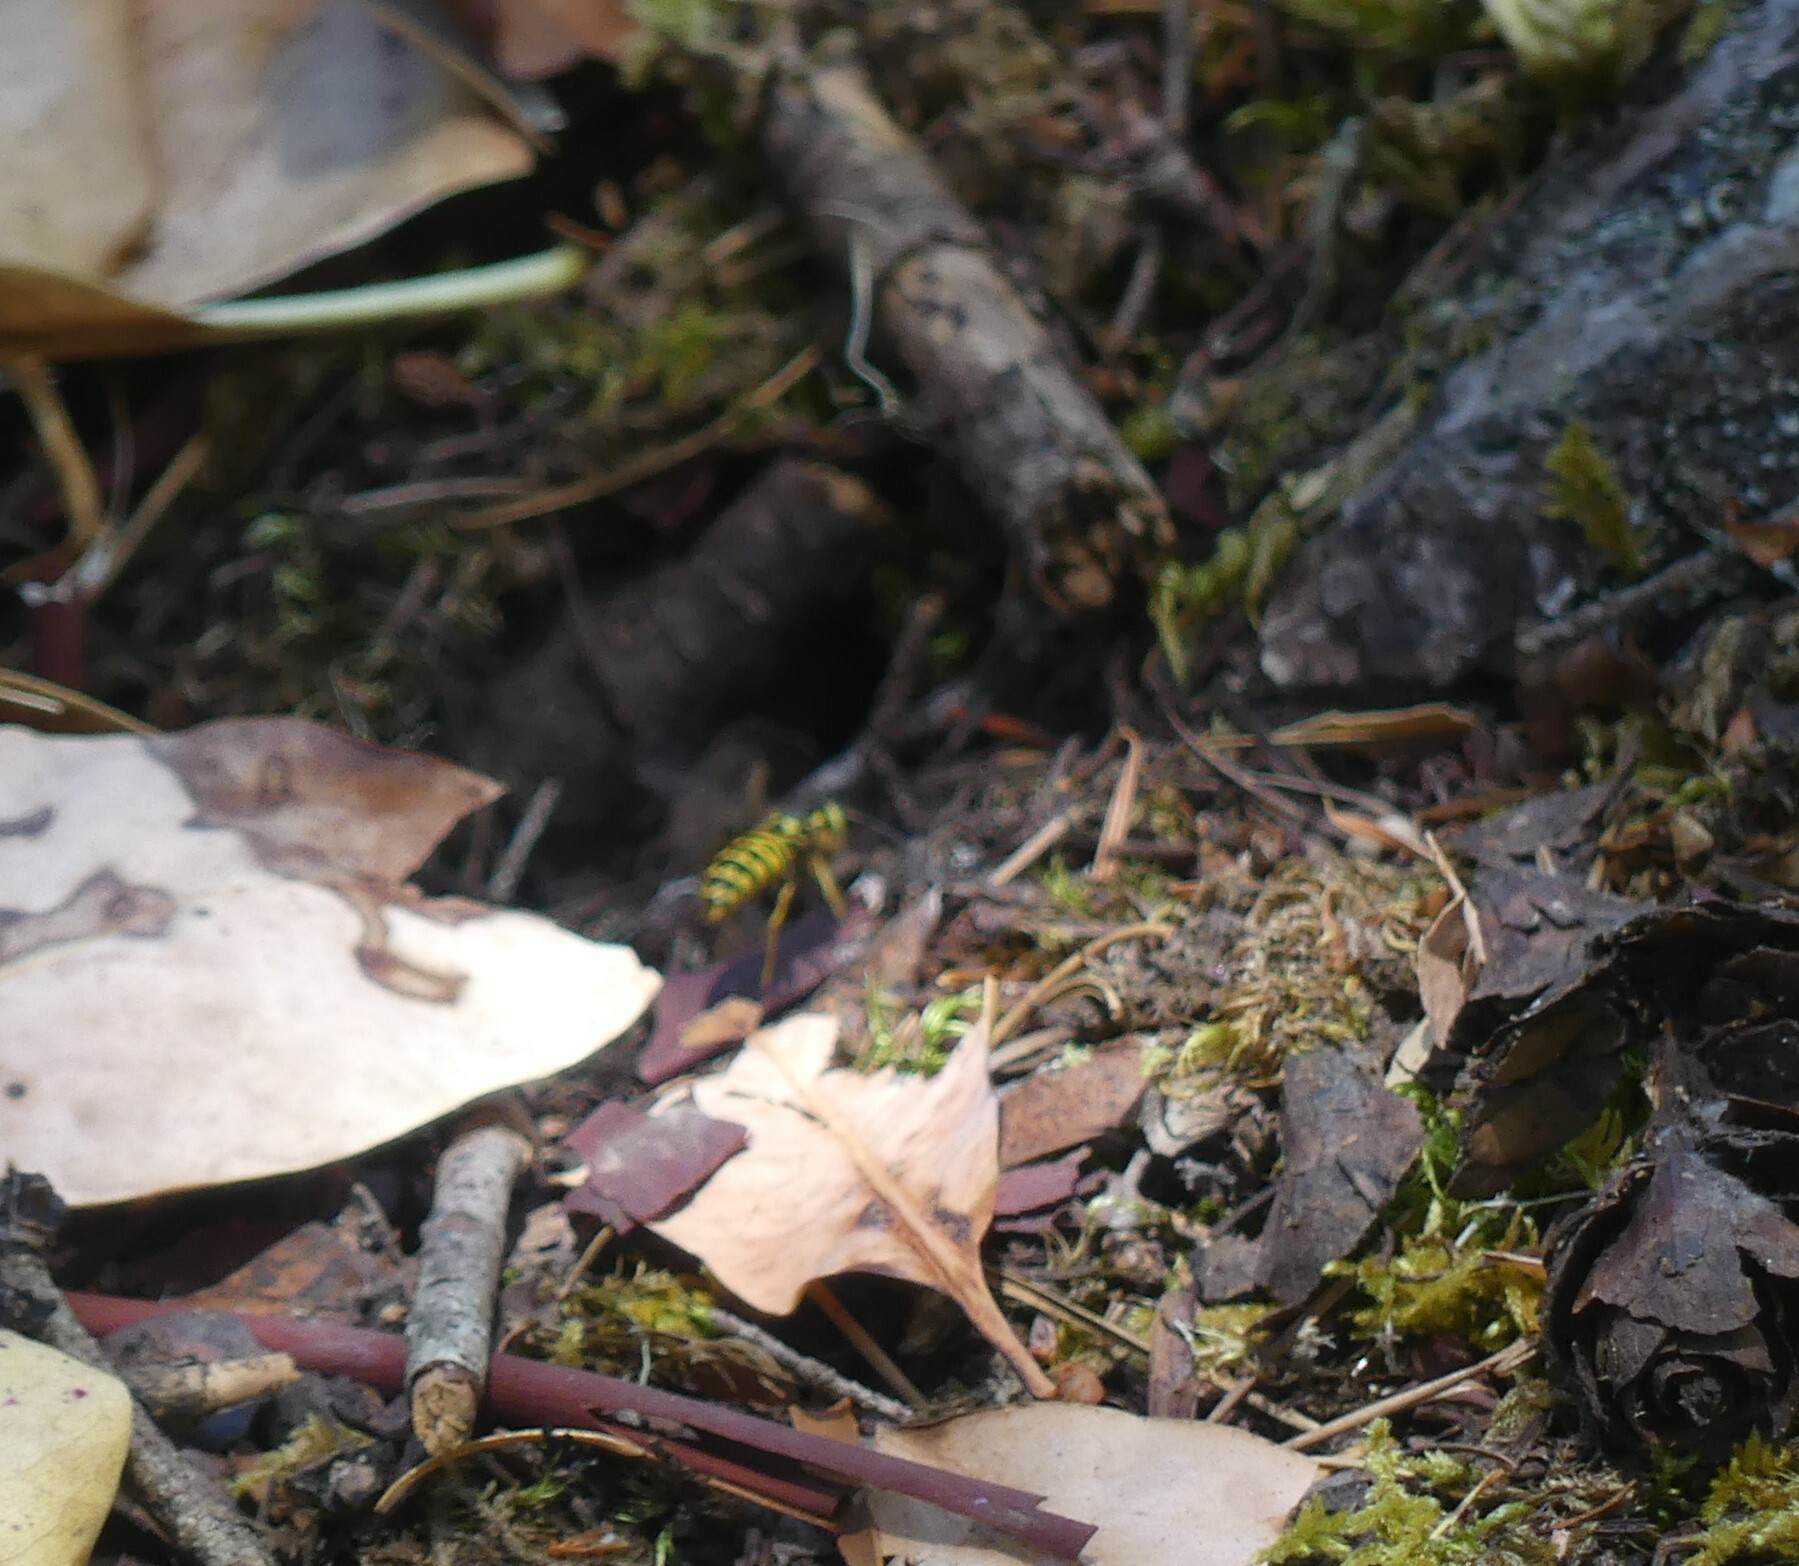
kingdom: Animalia
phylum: Arthropoda
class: Insecta
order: Hymenoptera
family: Vespidae
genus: Vespula
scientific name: Vespula pensylvanica
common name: Western yellowjacket
